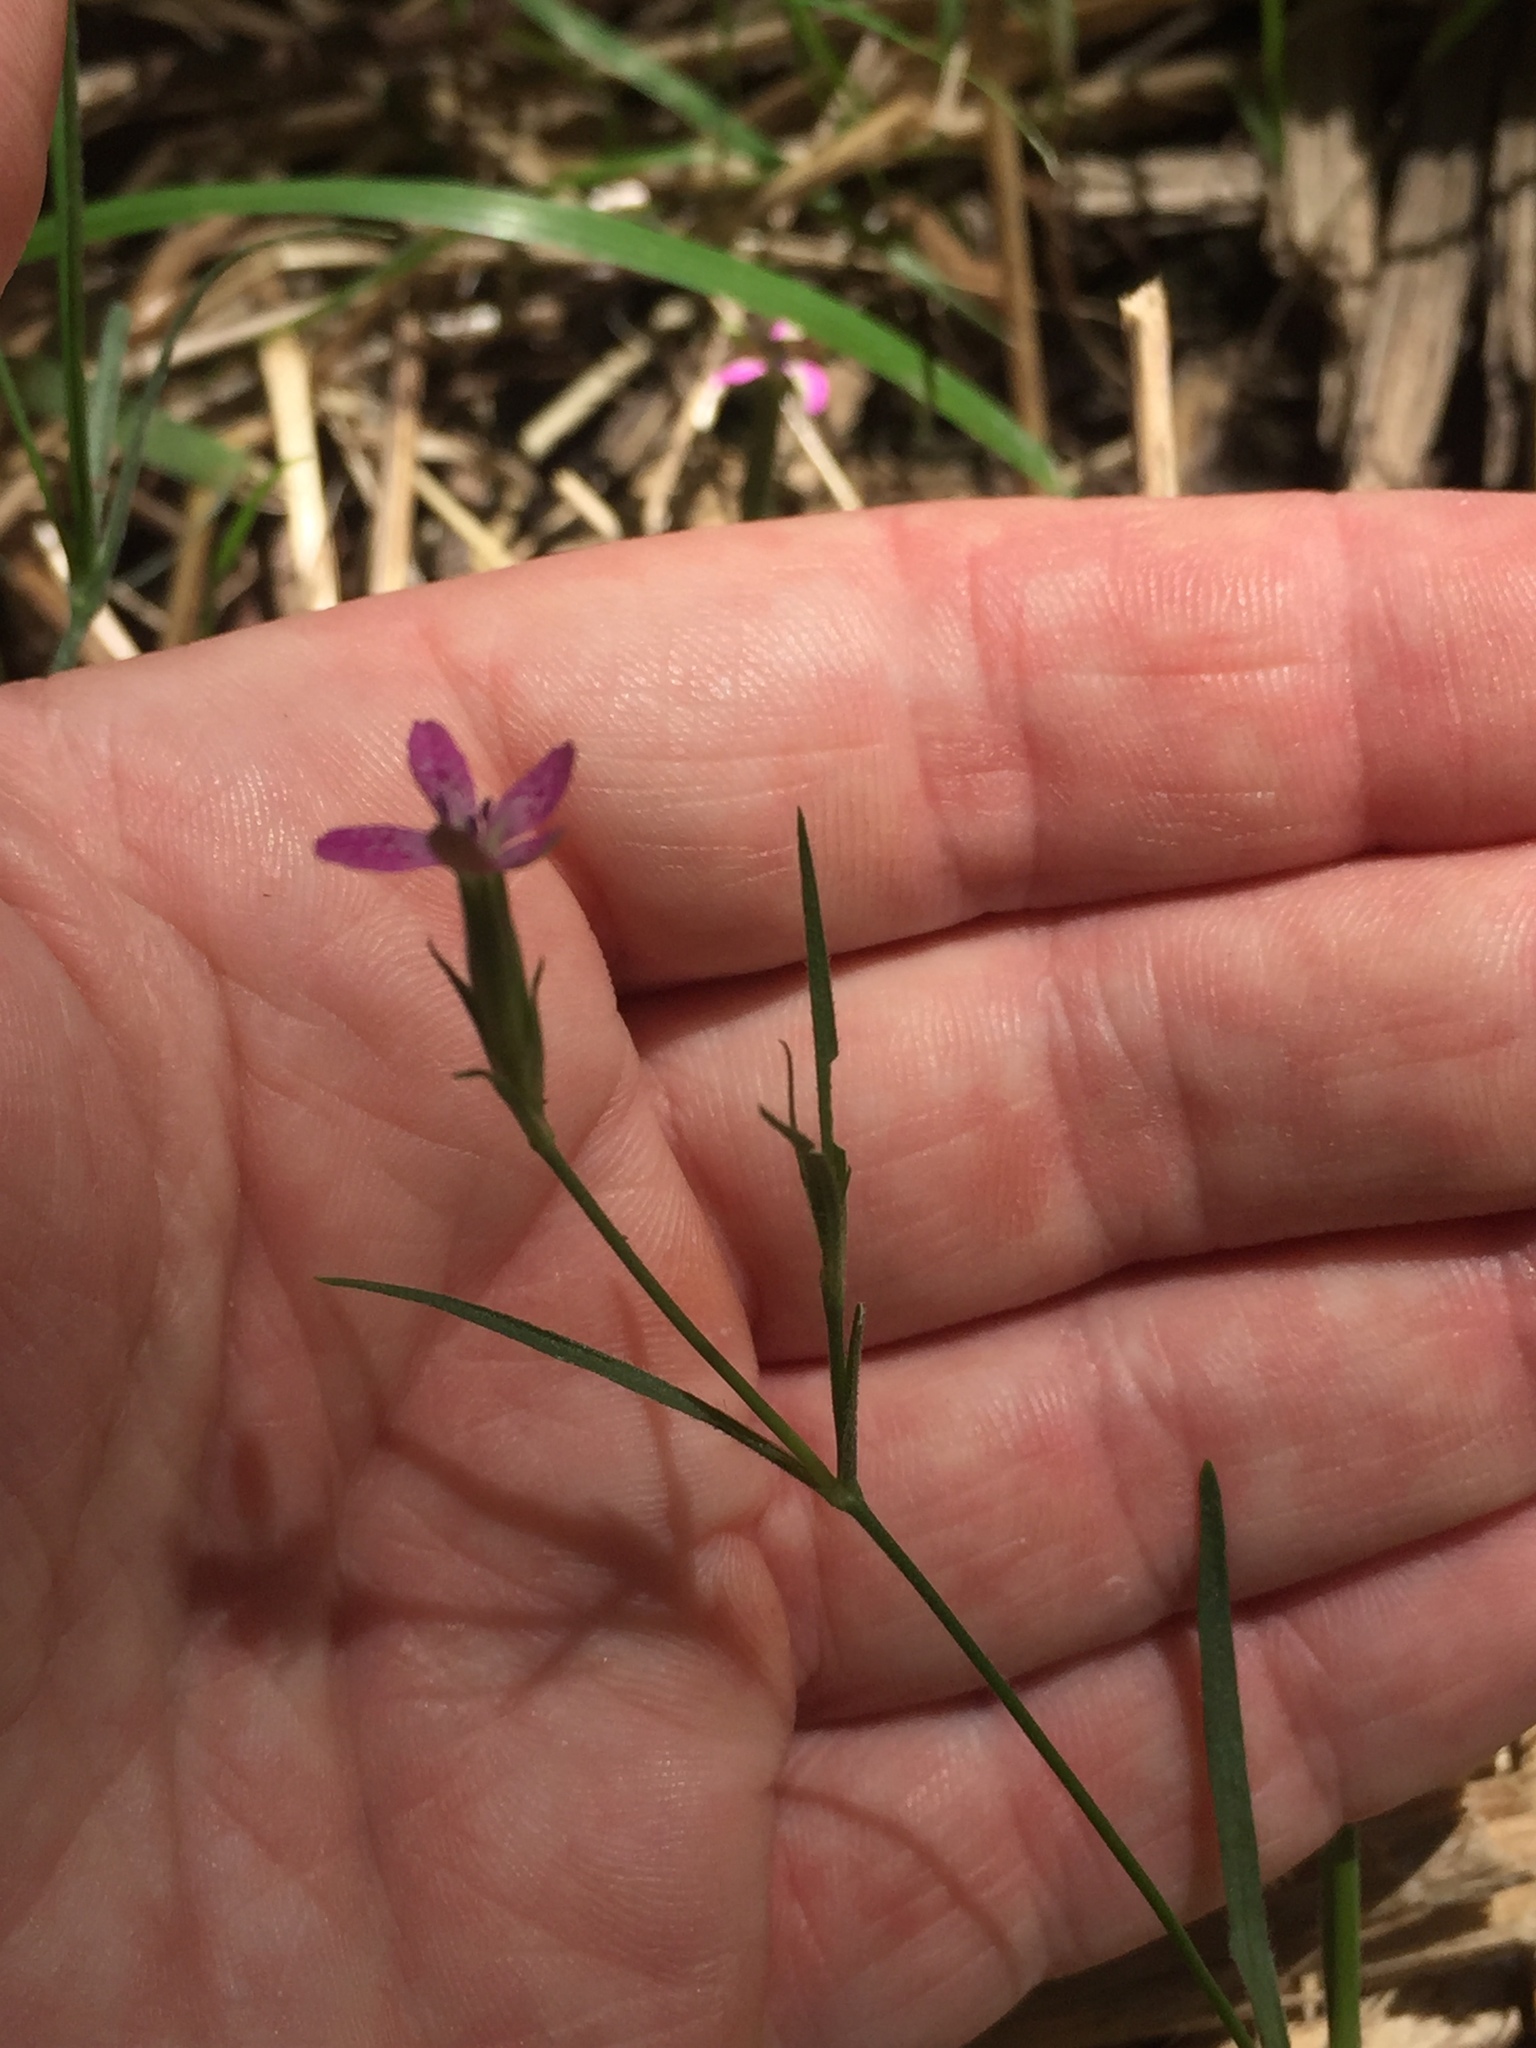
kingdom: Plantae
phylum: Tracheophyta
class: Magnoliopsida
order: Caryophyllales
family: Caryophyllaceae
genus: Dianthus
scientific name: Dianthus armeria
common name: Deptford pink
